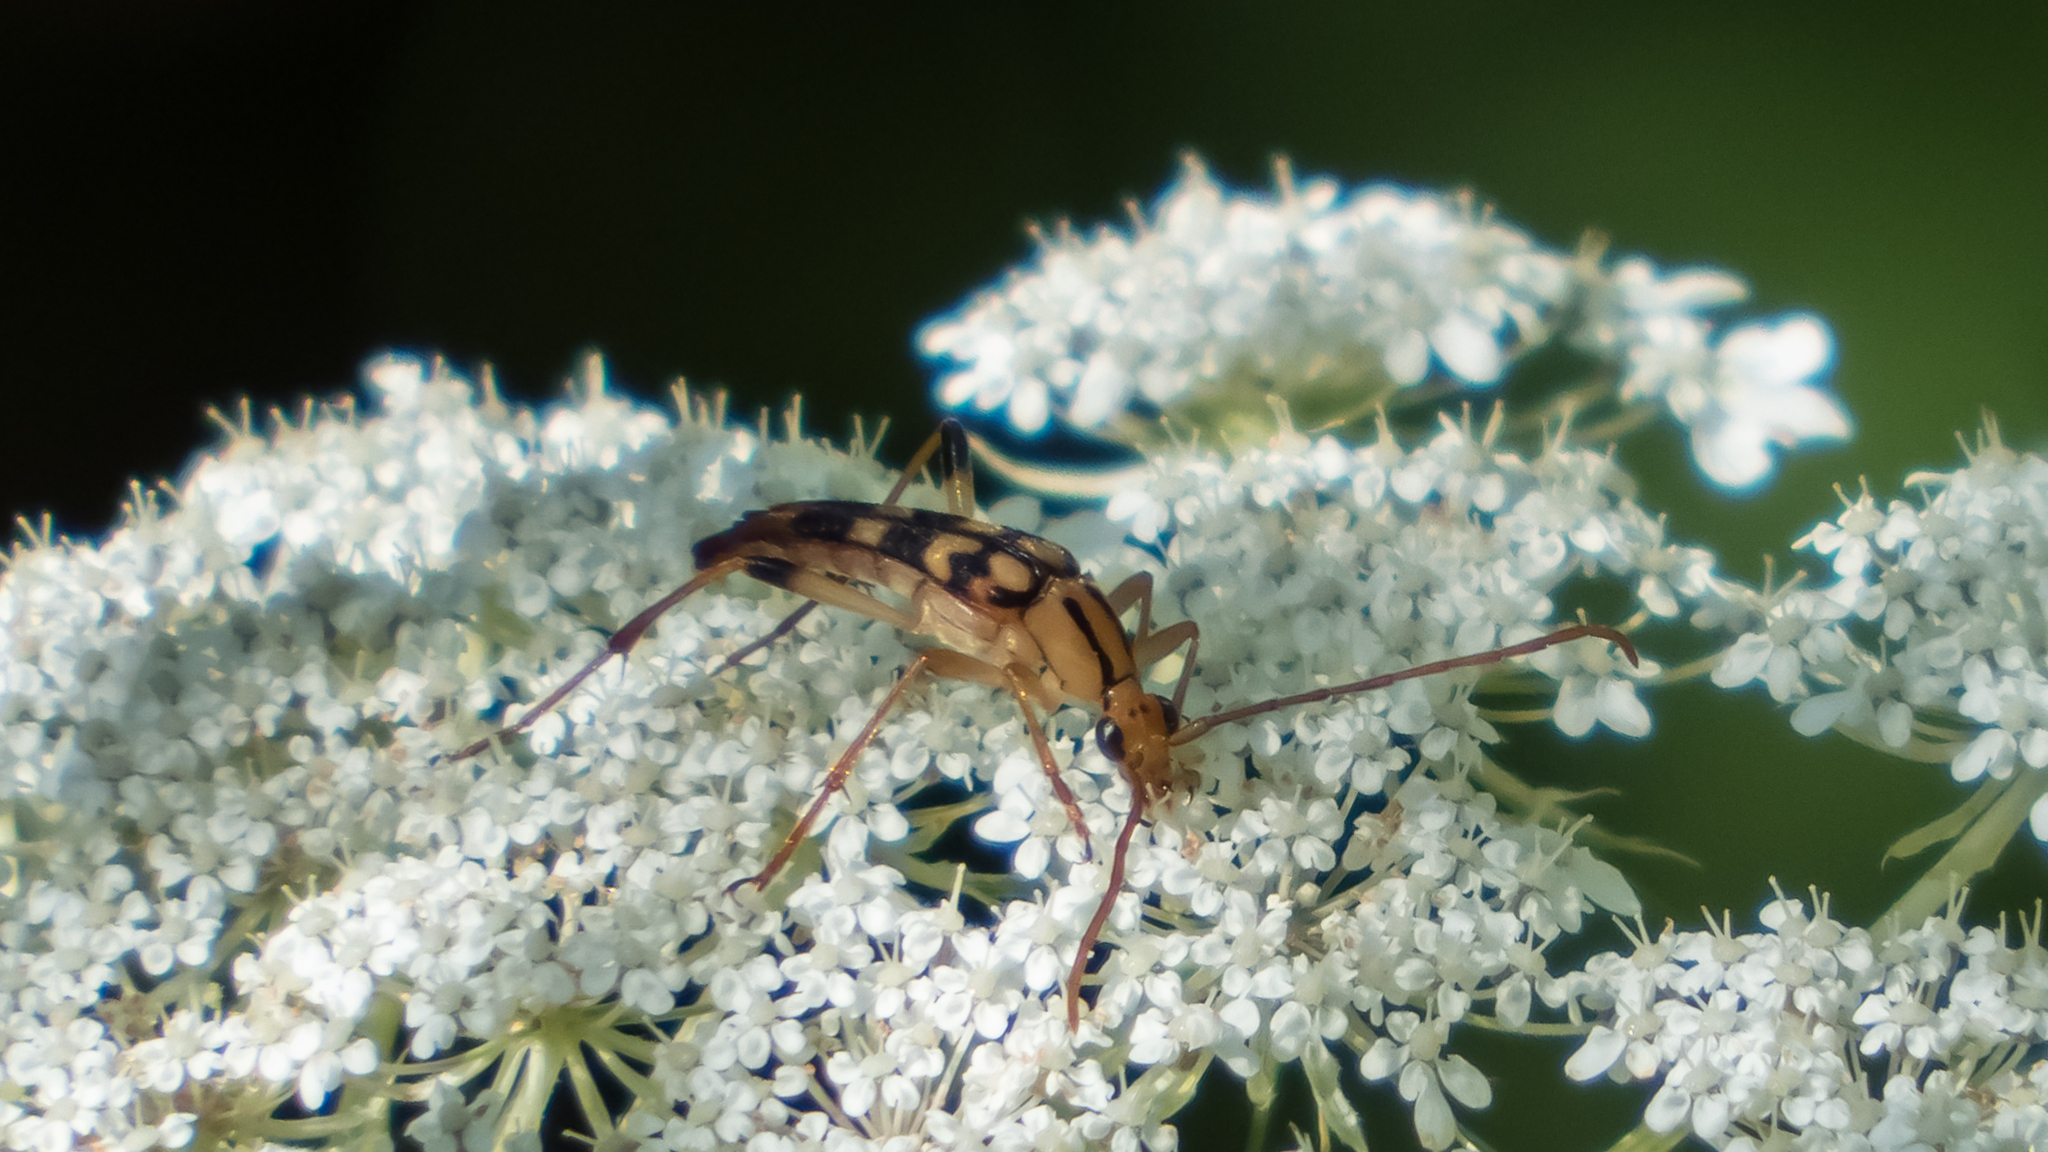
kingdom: Animalia
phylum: Arthropoda
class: Insecta
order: Coleoptera
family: Cerambycidae
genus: Strangalia
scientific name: Strangalia luteicornis
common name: Yellow-horned flower longhorn beetle
